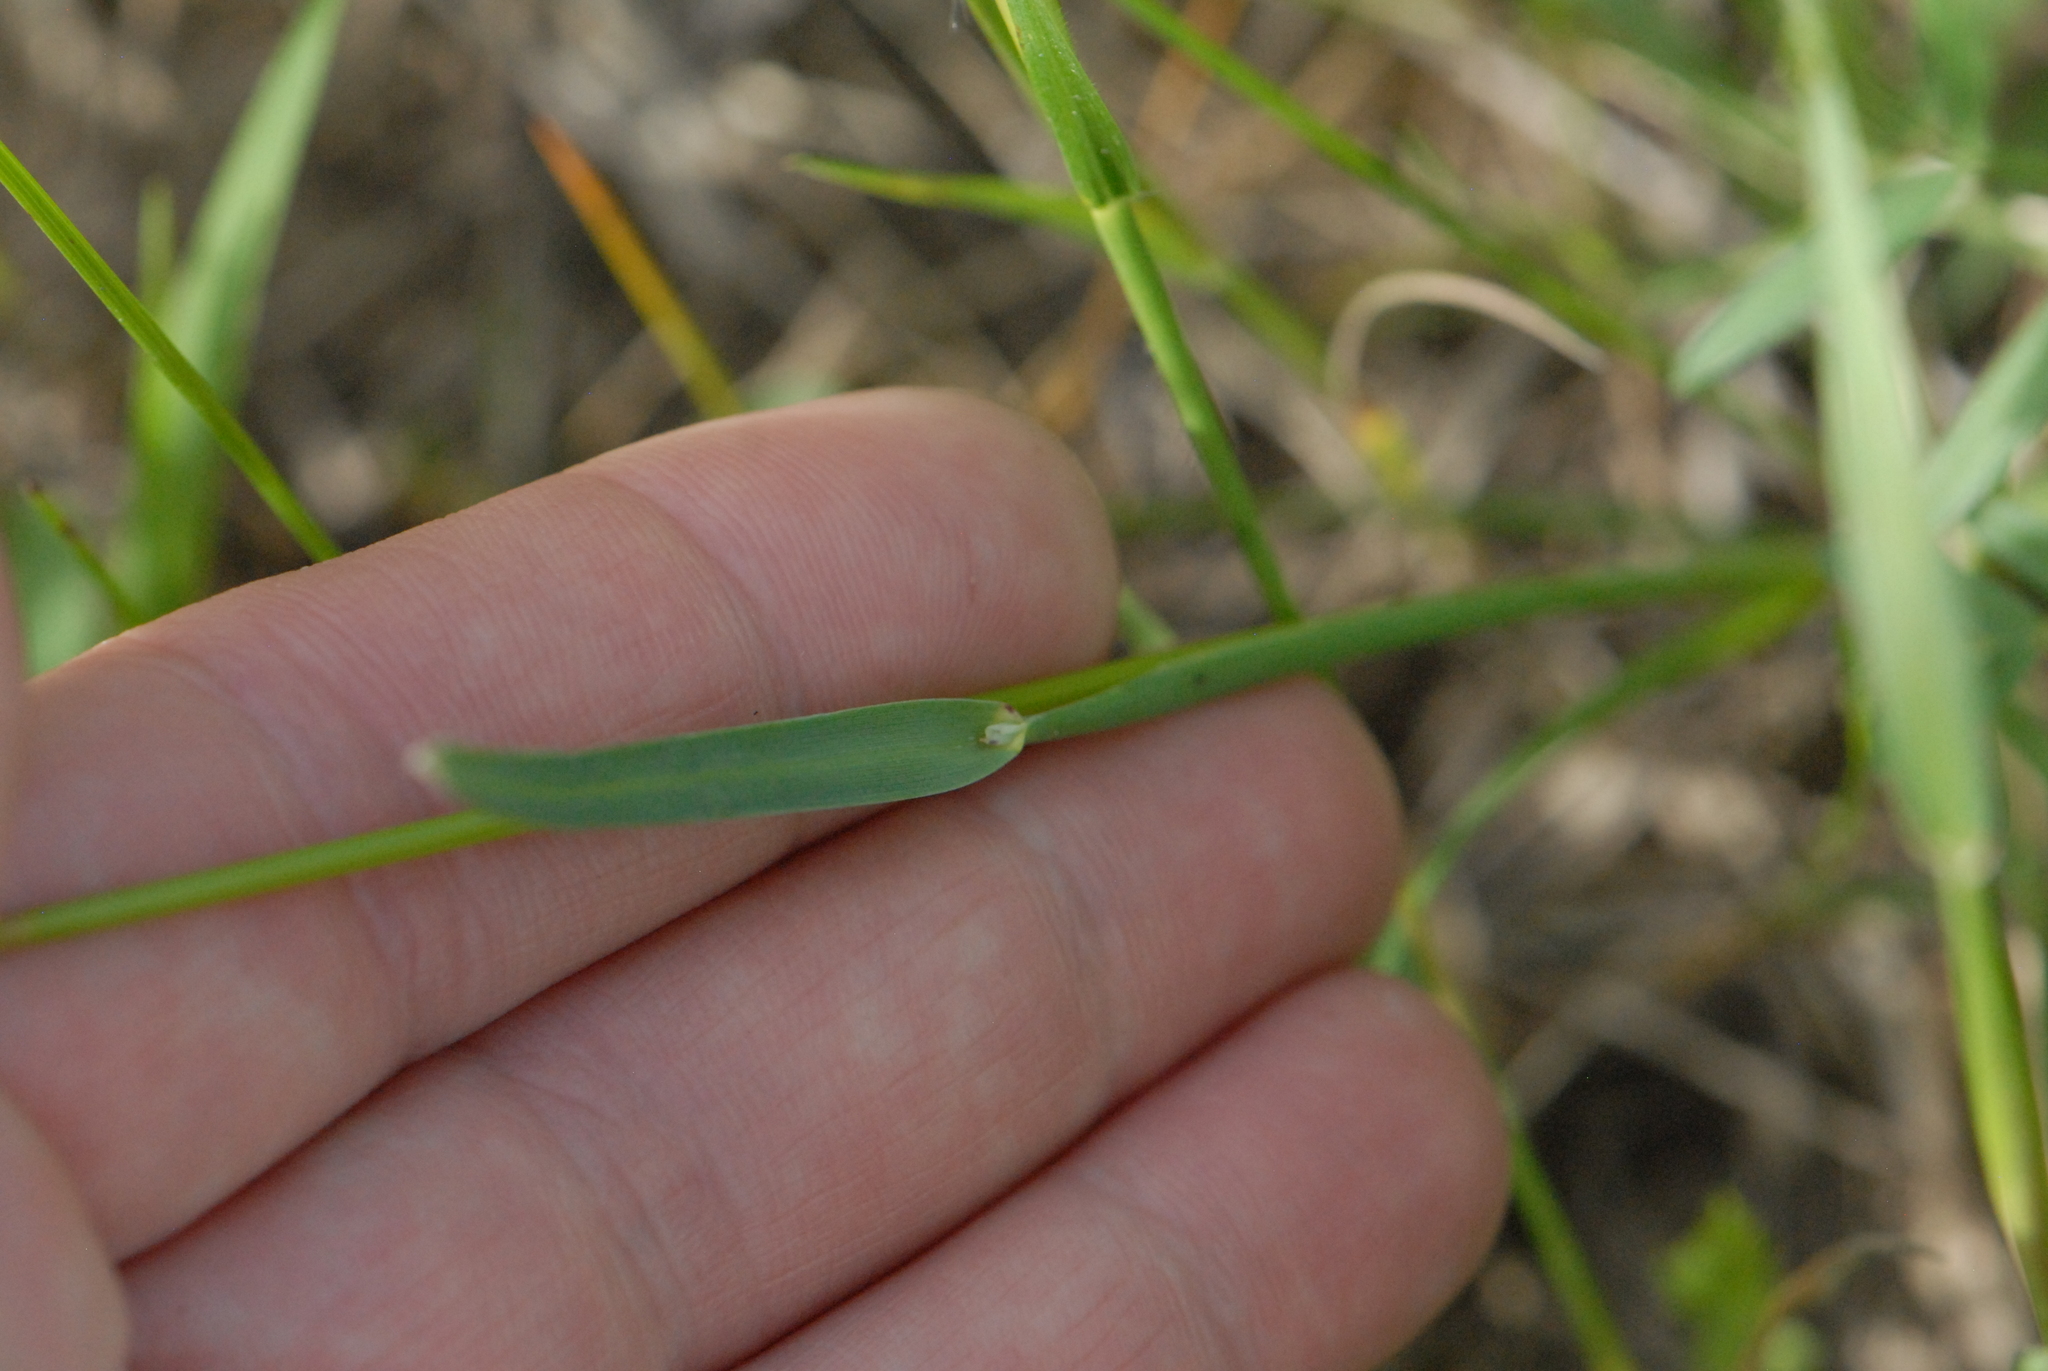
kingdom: Plantae
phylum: Tracheophyta
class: Liliopsida
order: Poales
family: Poaceae
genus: Poa
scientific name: Poa bulbosa
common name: Bulbous bluegrass
